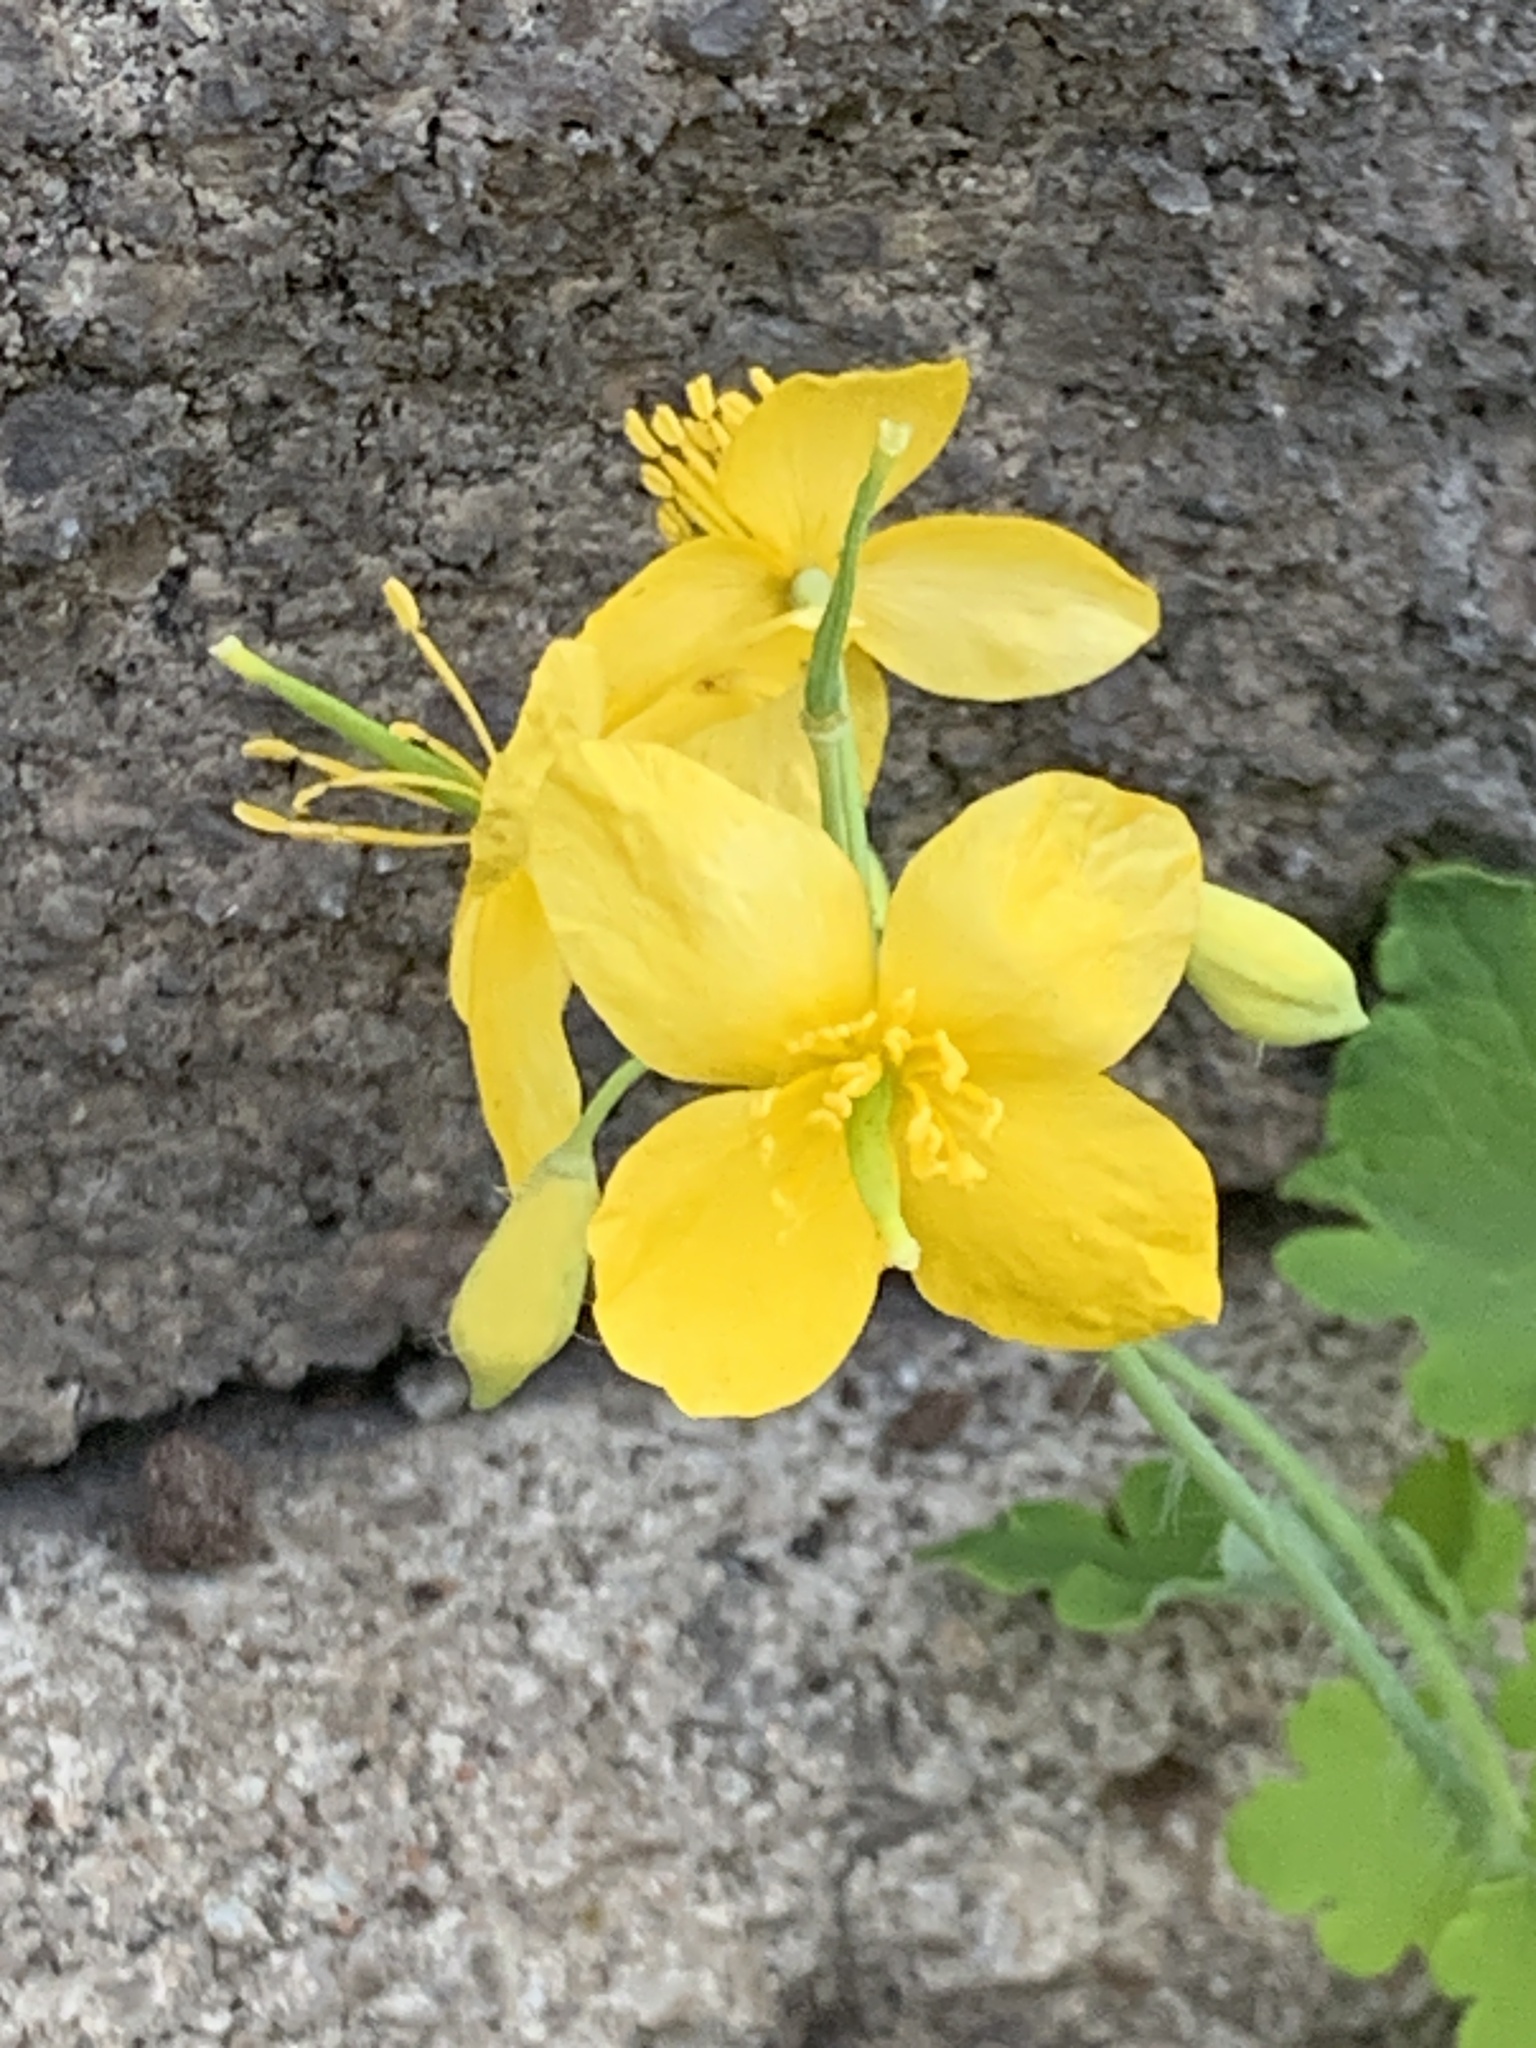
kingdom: Plantae
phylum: Tracheophyta
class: Magnoliopsida
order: Ranunculales
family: Papaveraceae
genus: Chelidonium
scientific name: Chelidonium majus
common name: Greater celandine
